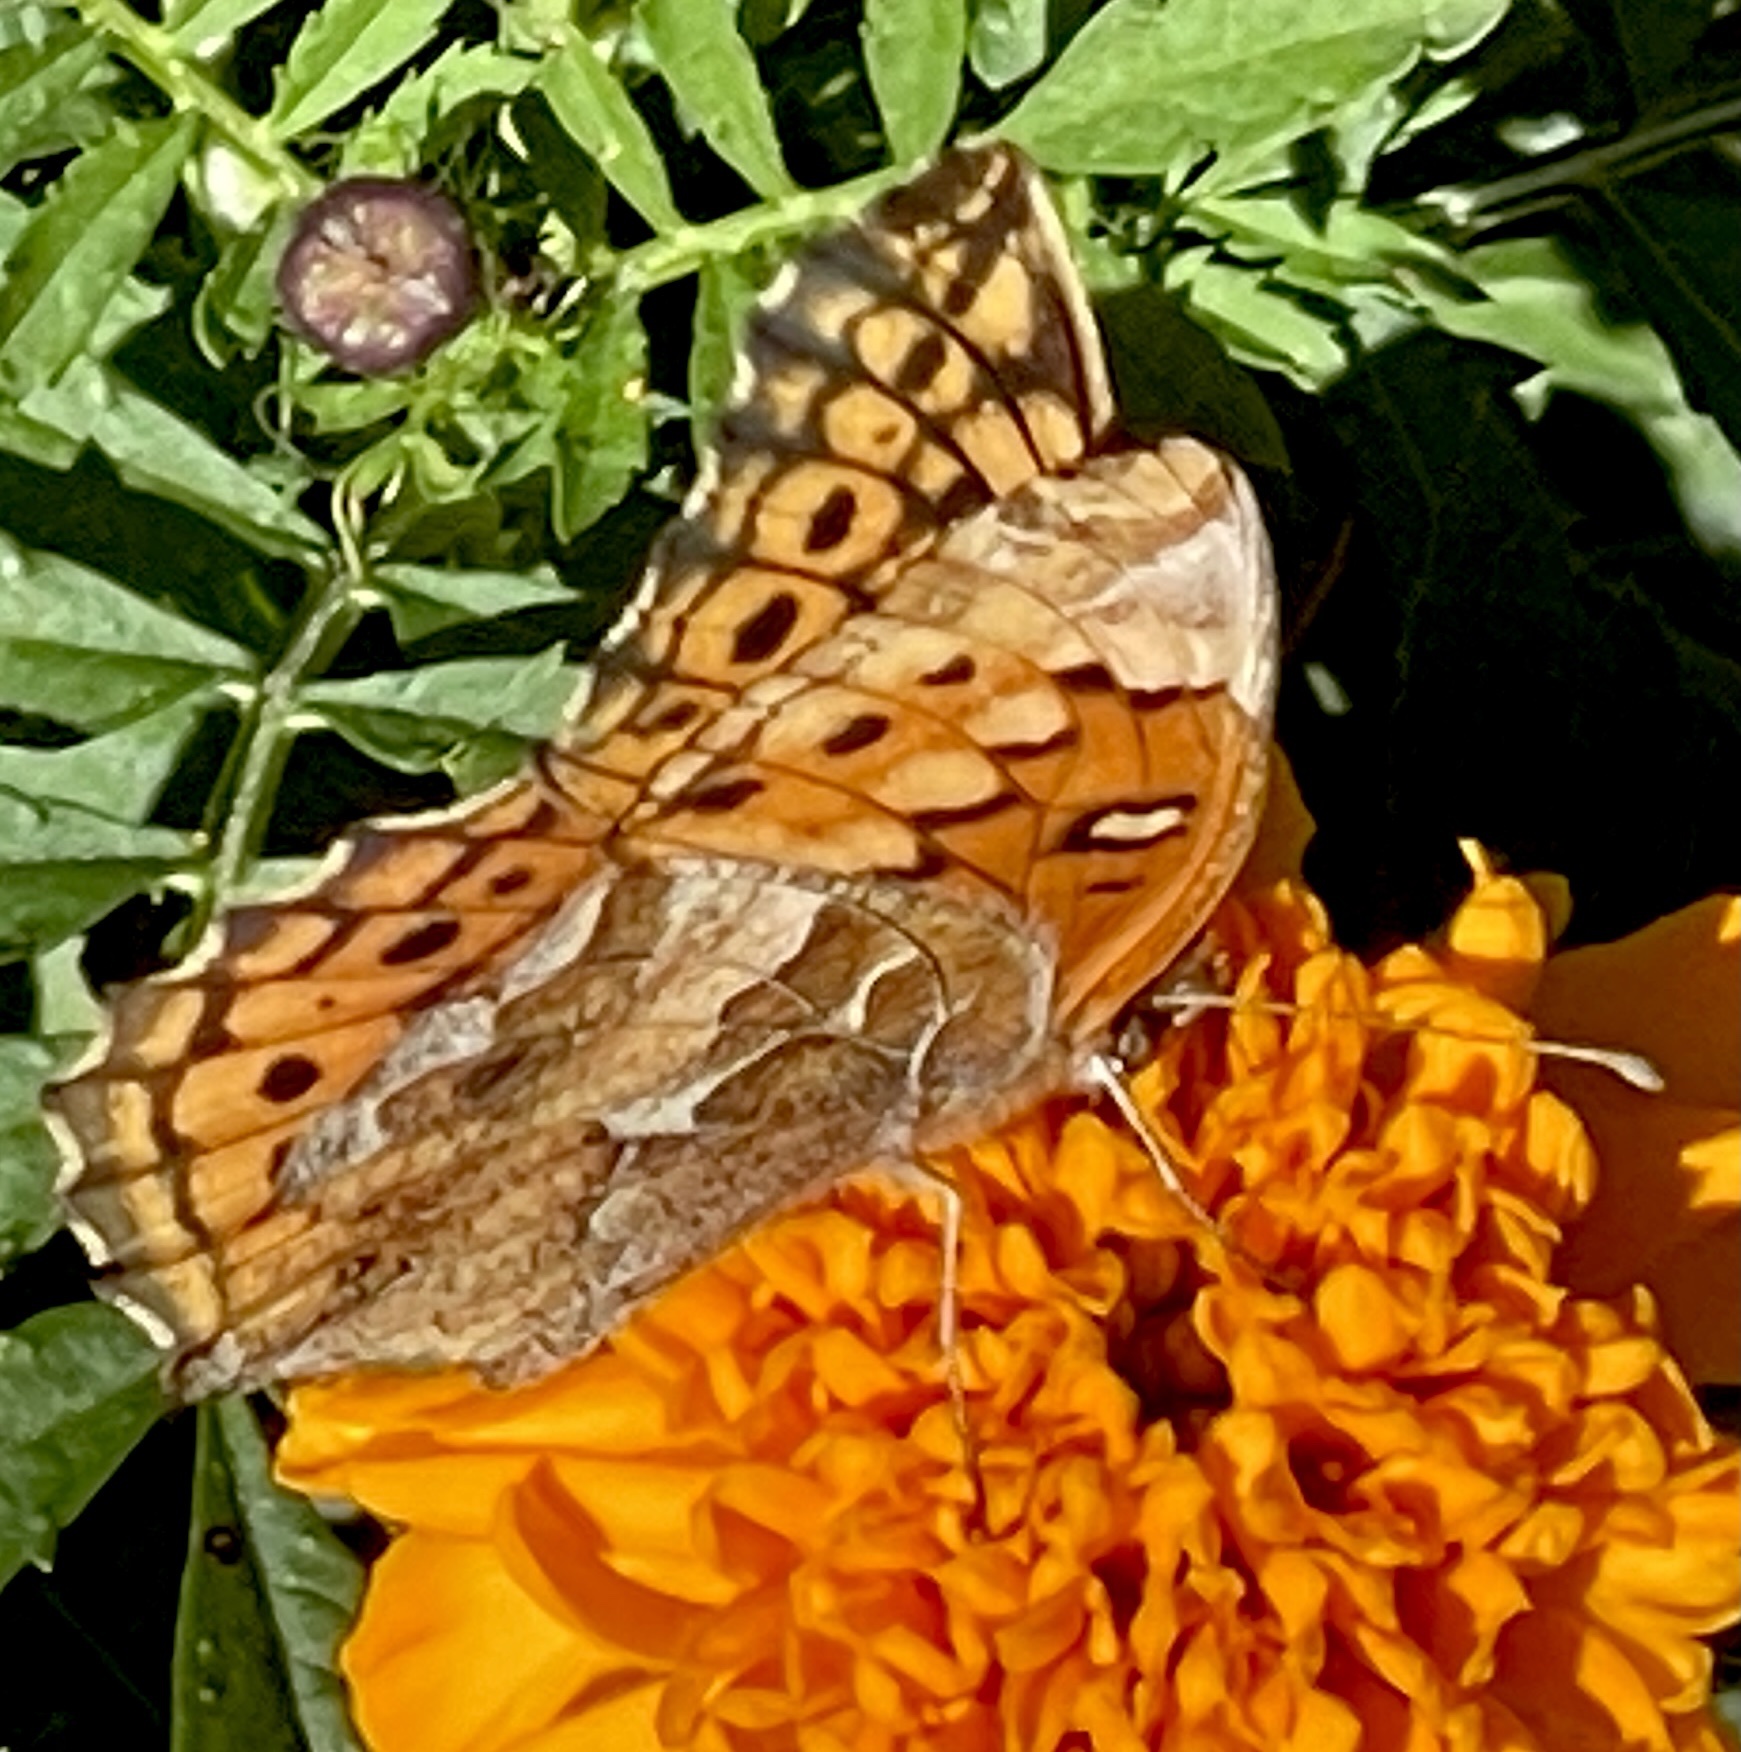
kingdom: Animalia
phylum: Arthropoda
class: Insecta
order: Lepidoptera
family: Nymphalidae
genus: Euptoieta
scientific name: Euptoieta claudia
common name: Variegated fritillary
